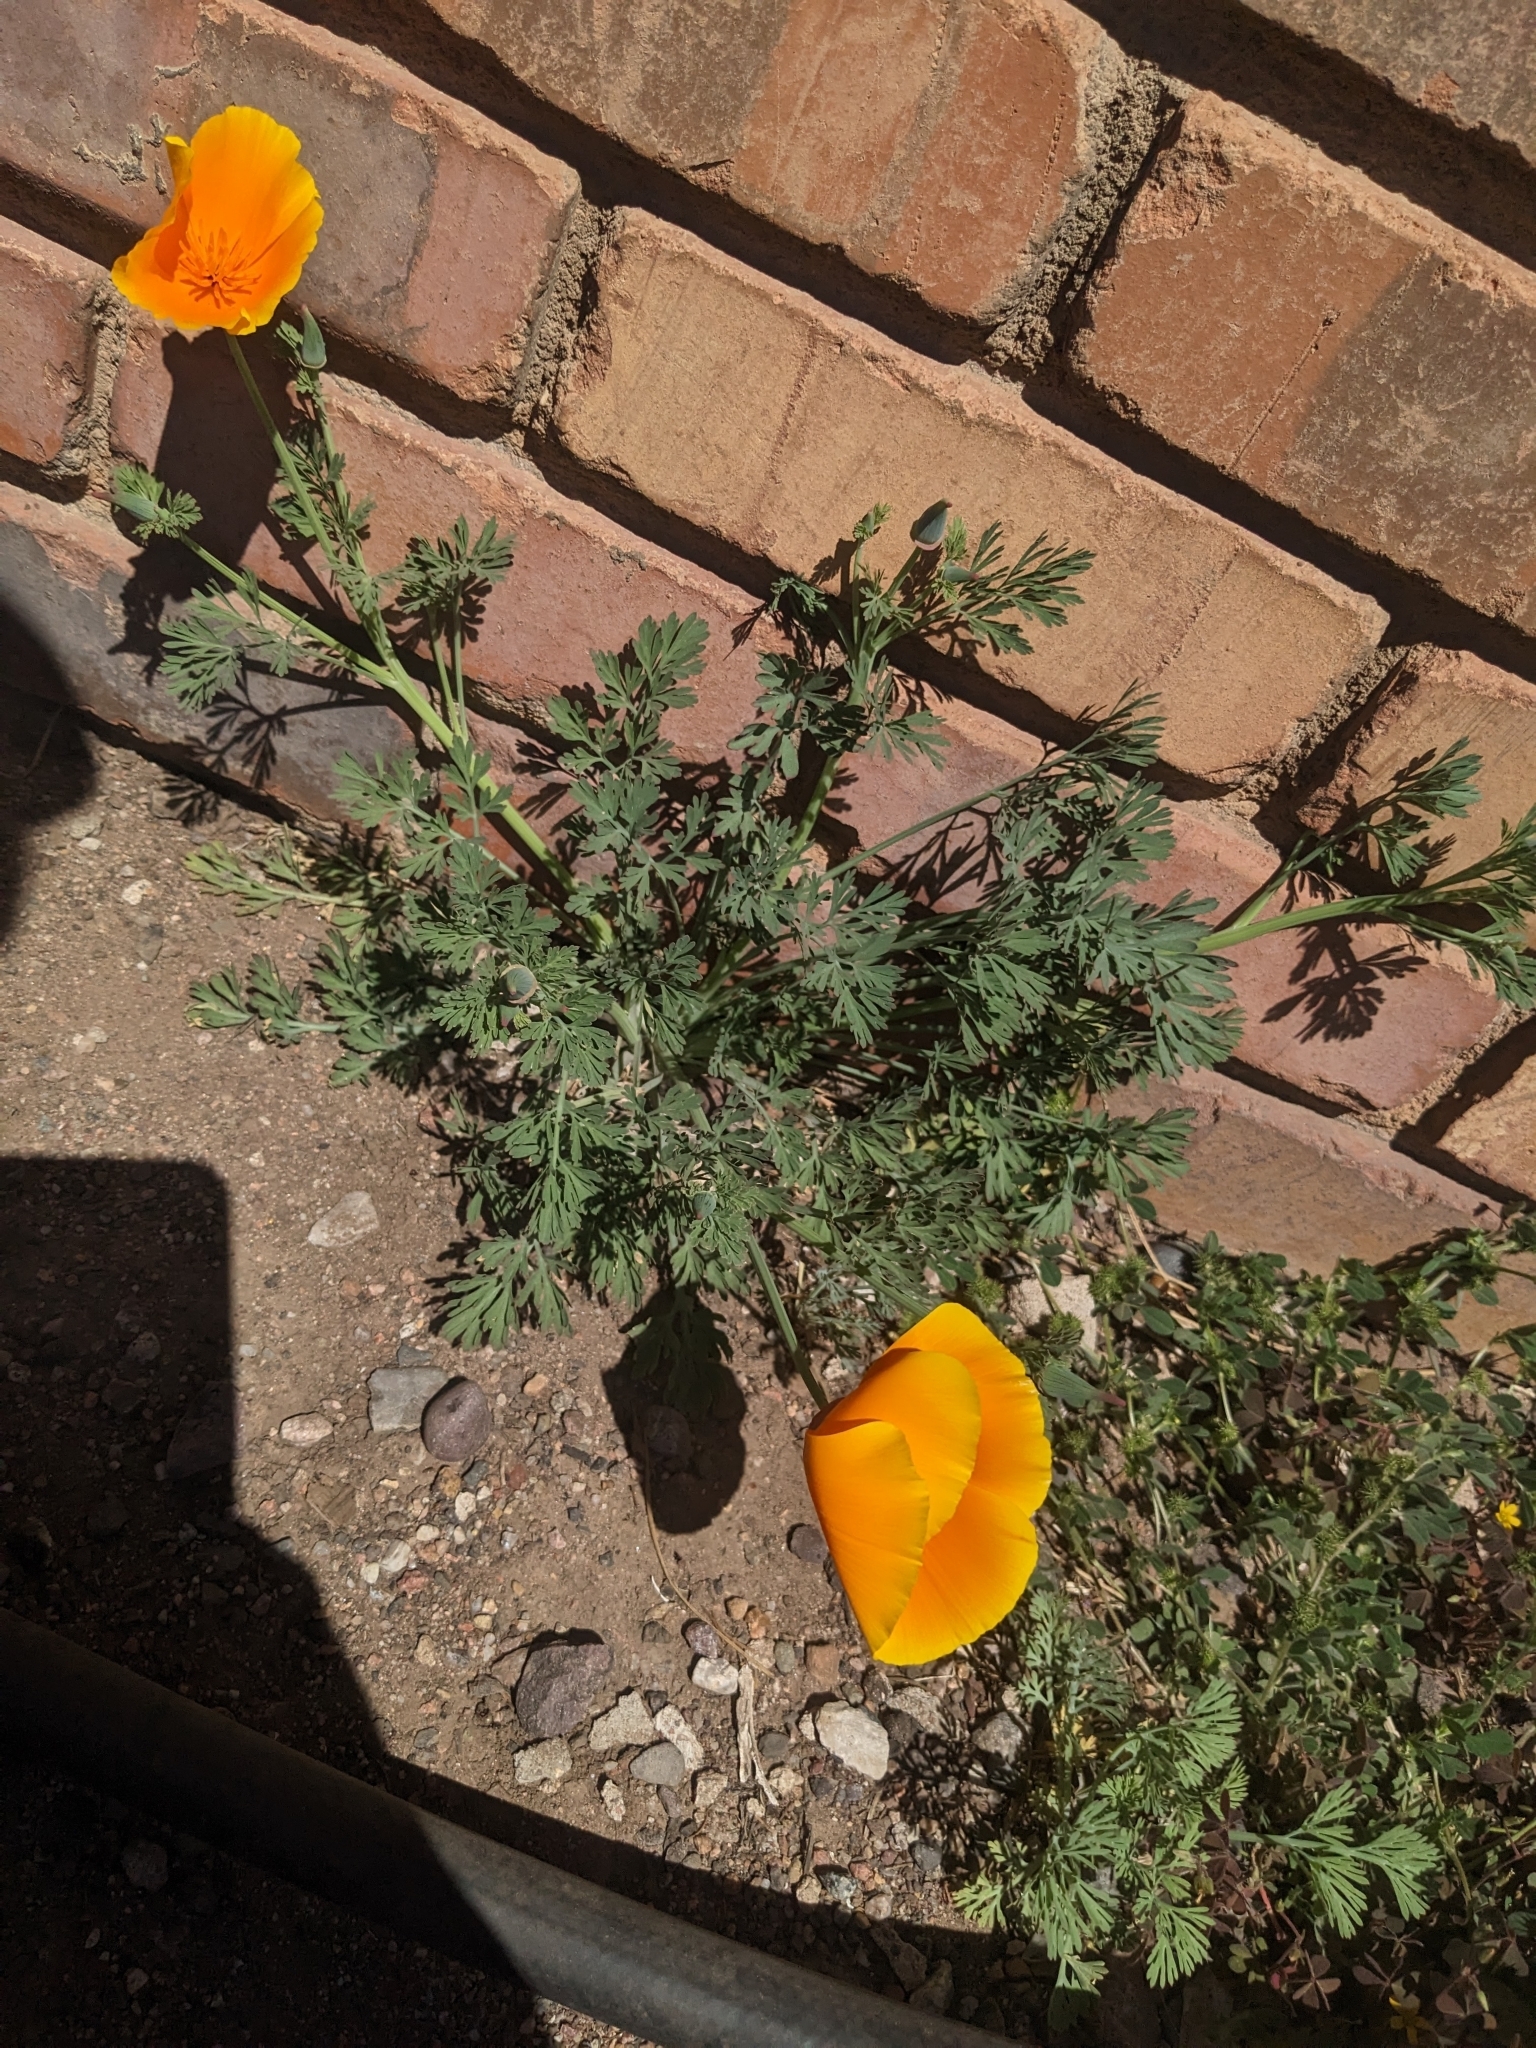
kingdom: Plantae
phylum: Tracheophyta
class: Magnoliopsida
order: Ranunculales
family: Papaveraceae
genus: Eschscholzia
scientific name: Eschscholzia californica
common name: California poppy
